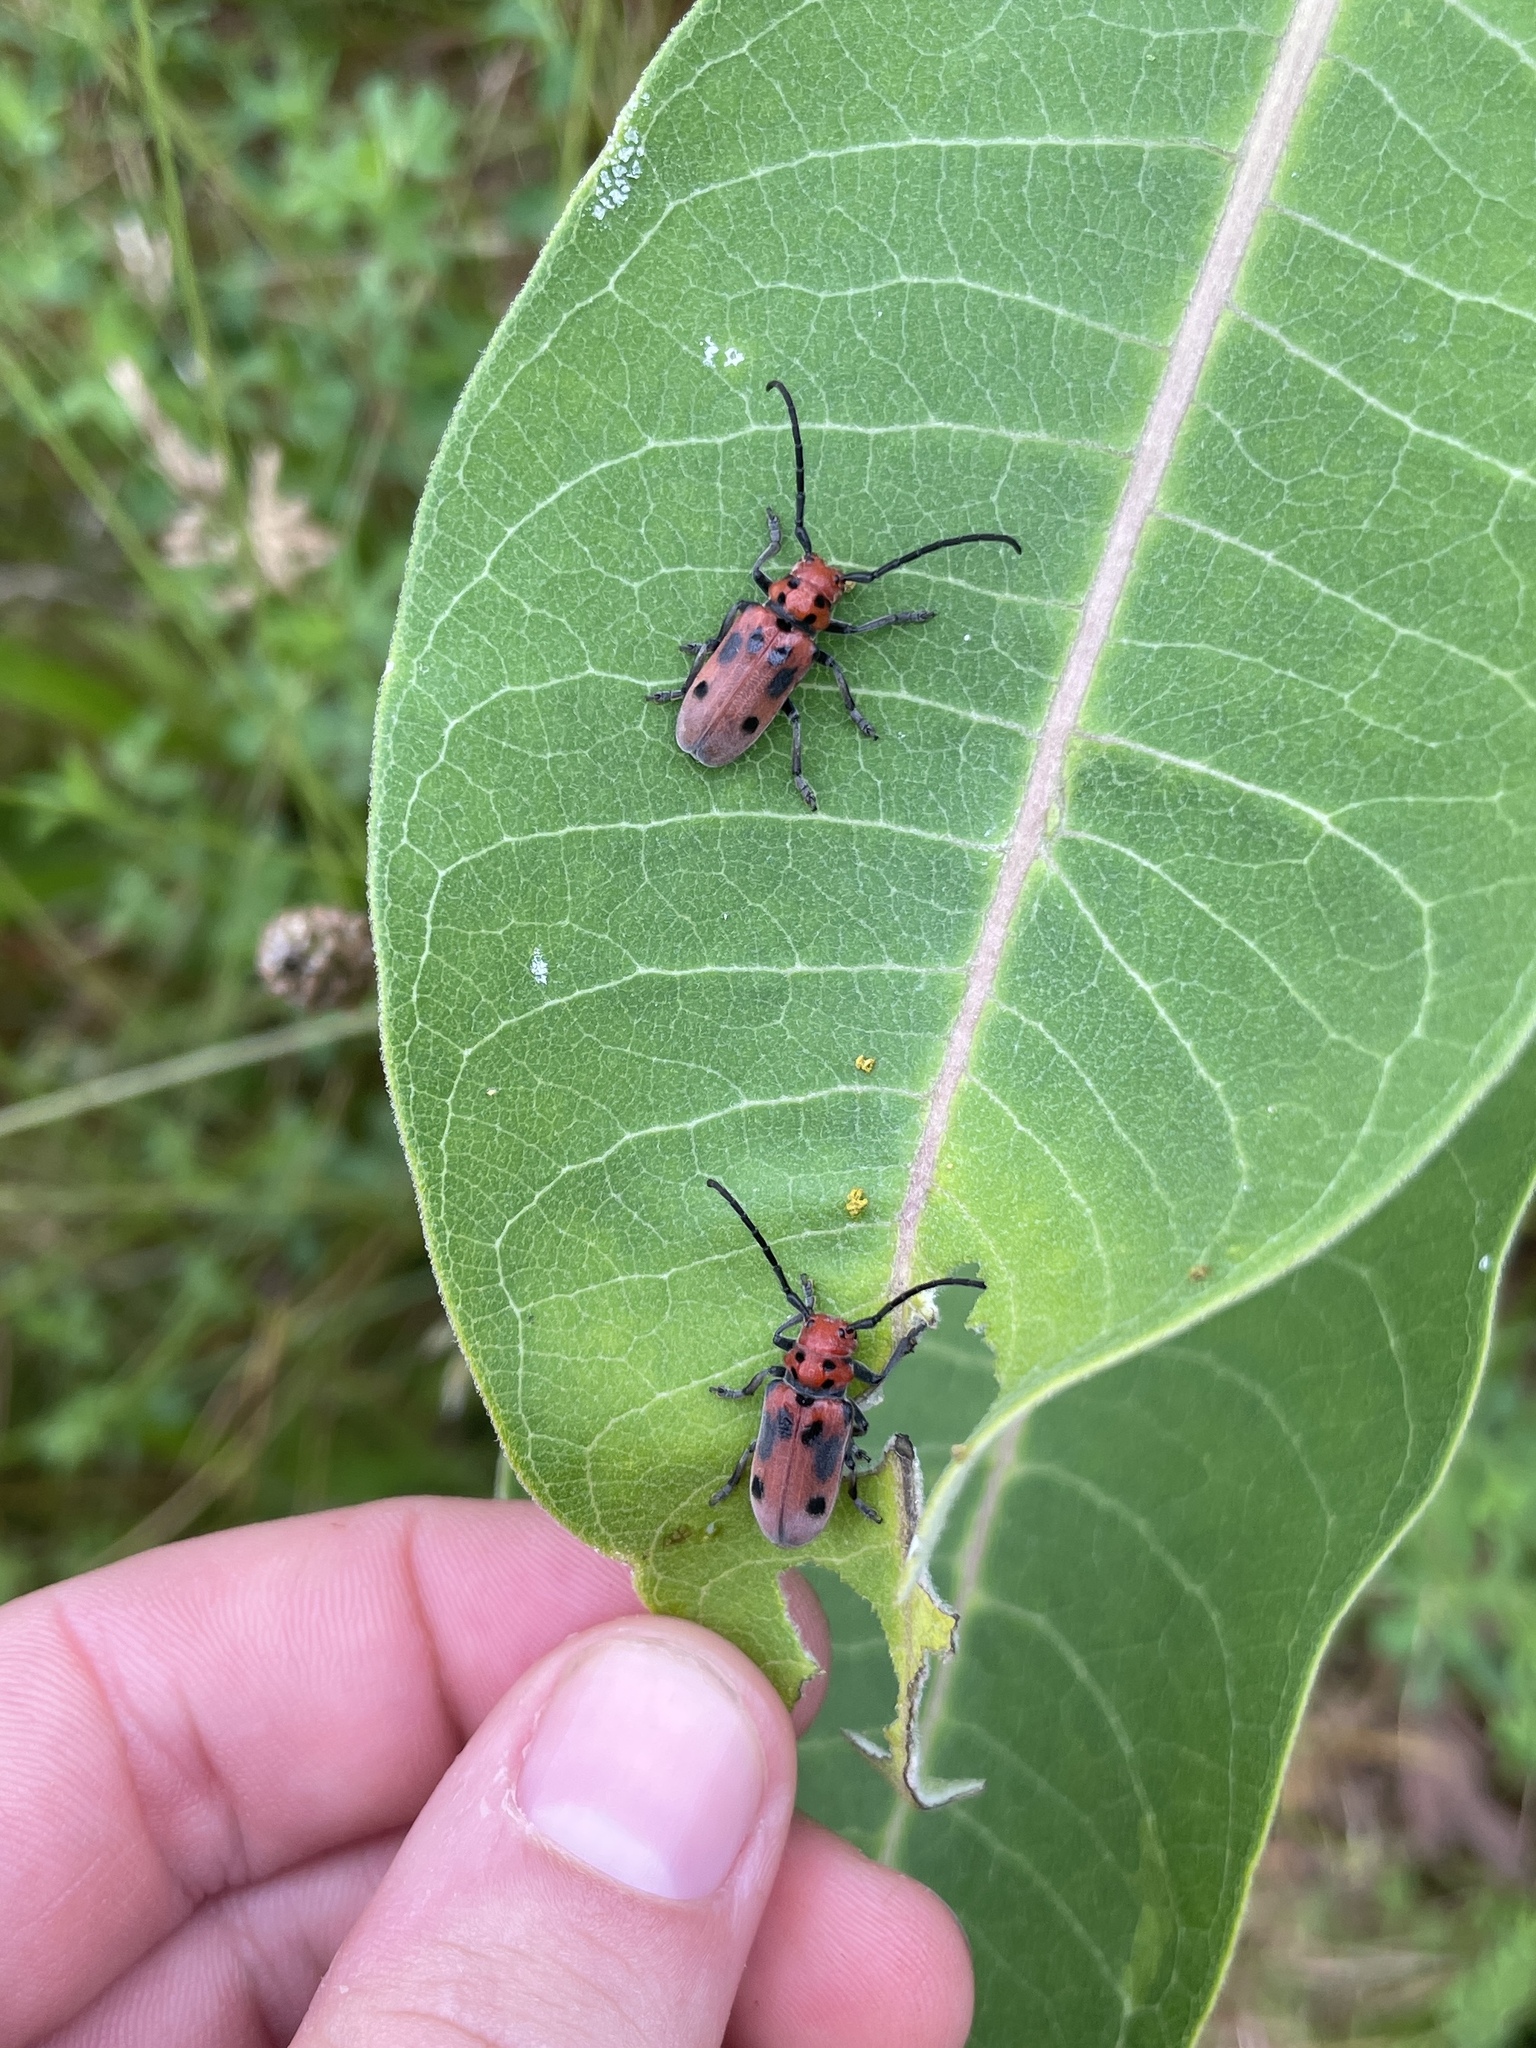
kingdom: Animalia
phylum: Arthropoda
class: Insecta
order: Coleoptera
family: Cerambycidae
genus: Tetraopes
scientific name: Tetraopes tetrophthalmus
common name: Red milkweed beetle
